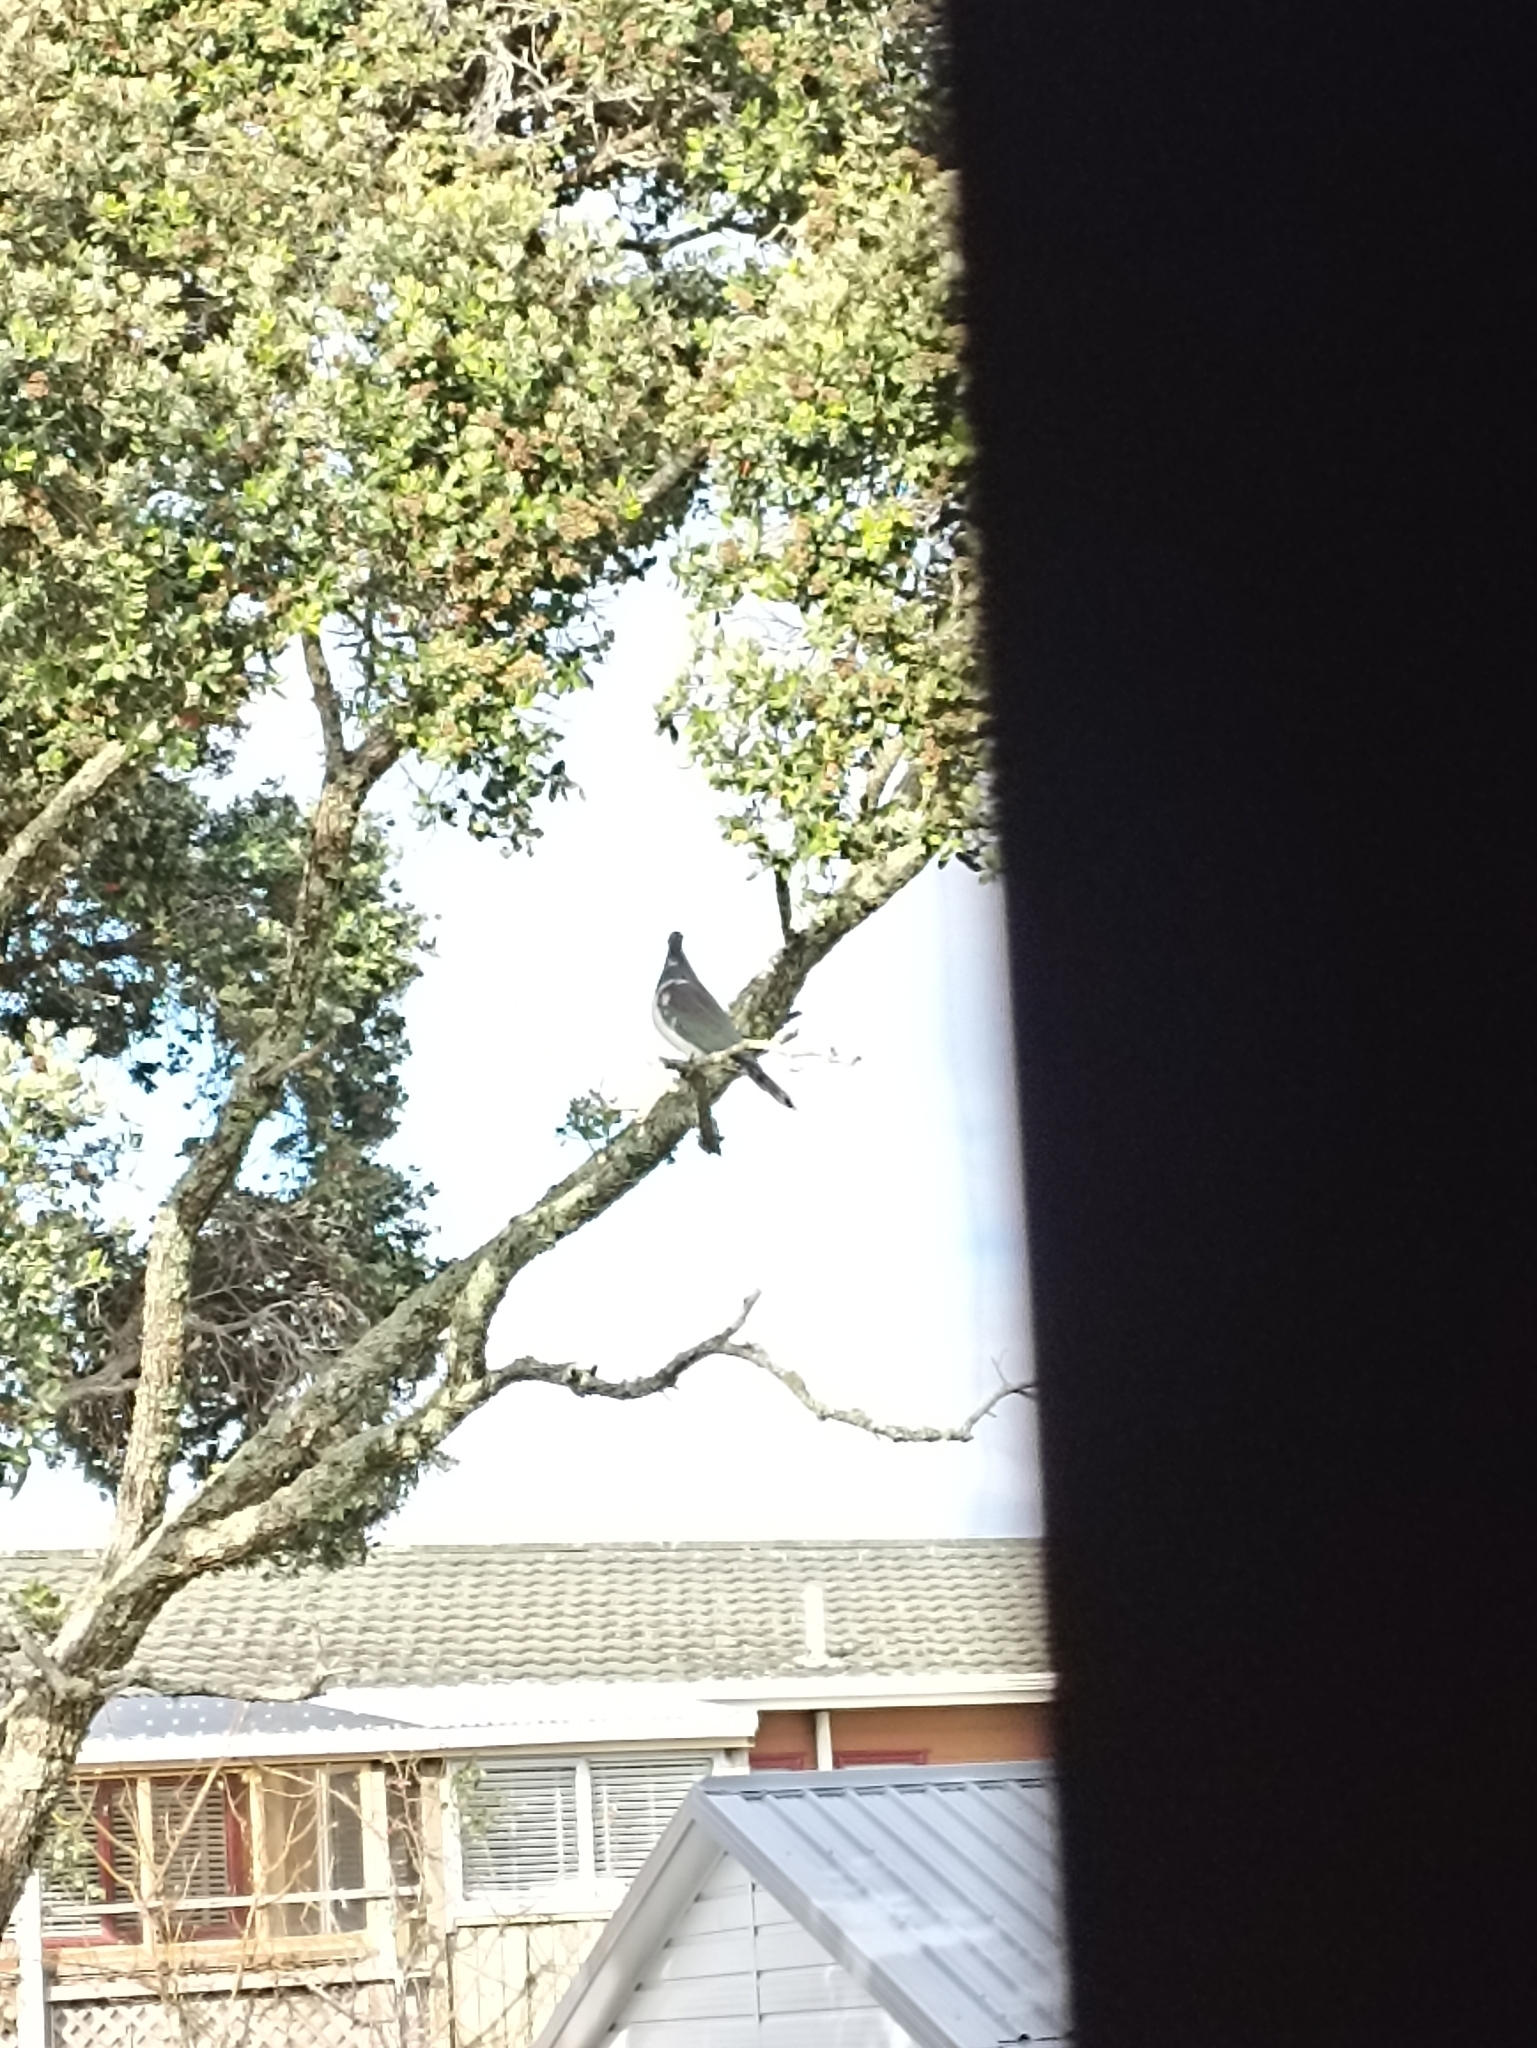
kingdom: Animalia
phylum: Chordata
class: Aves
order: Columbiformes
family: Columbidae
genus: Hemiphaga
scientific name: Hemiphaga novaeseelandiae
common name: New zealand pigeon
